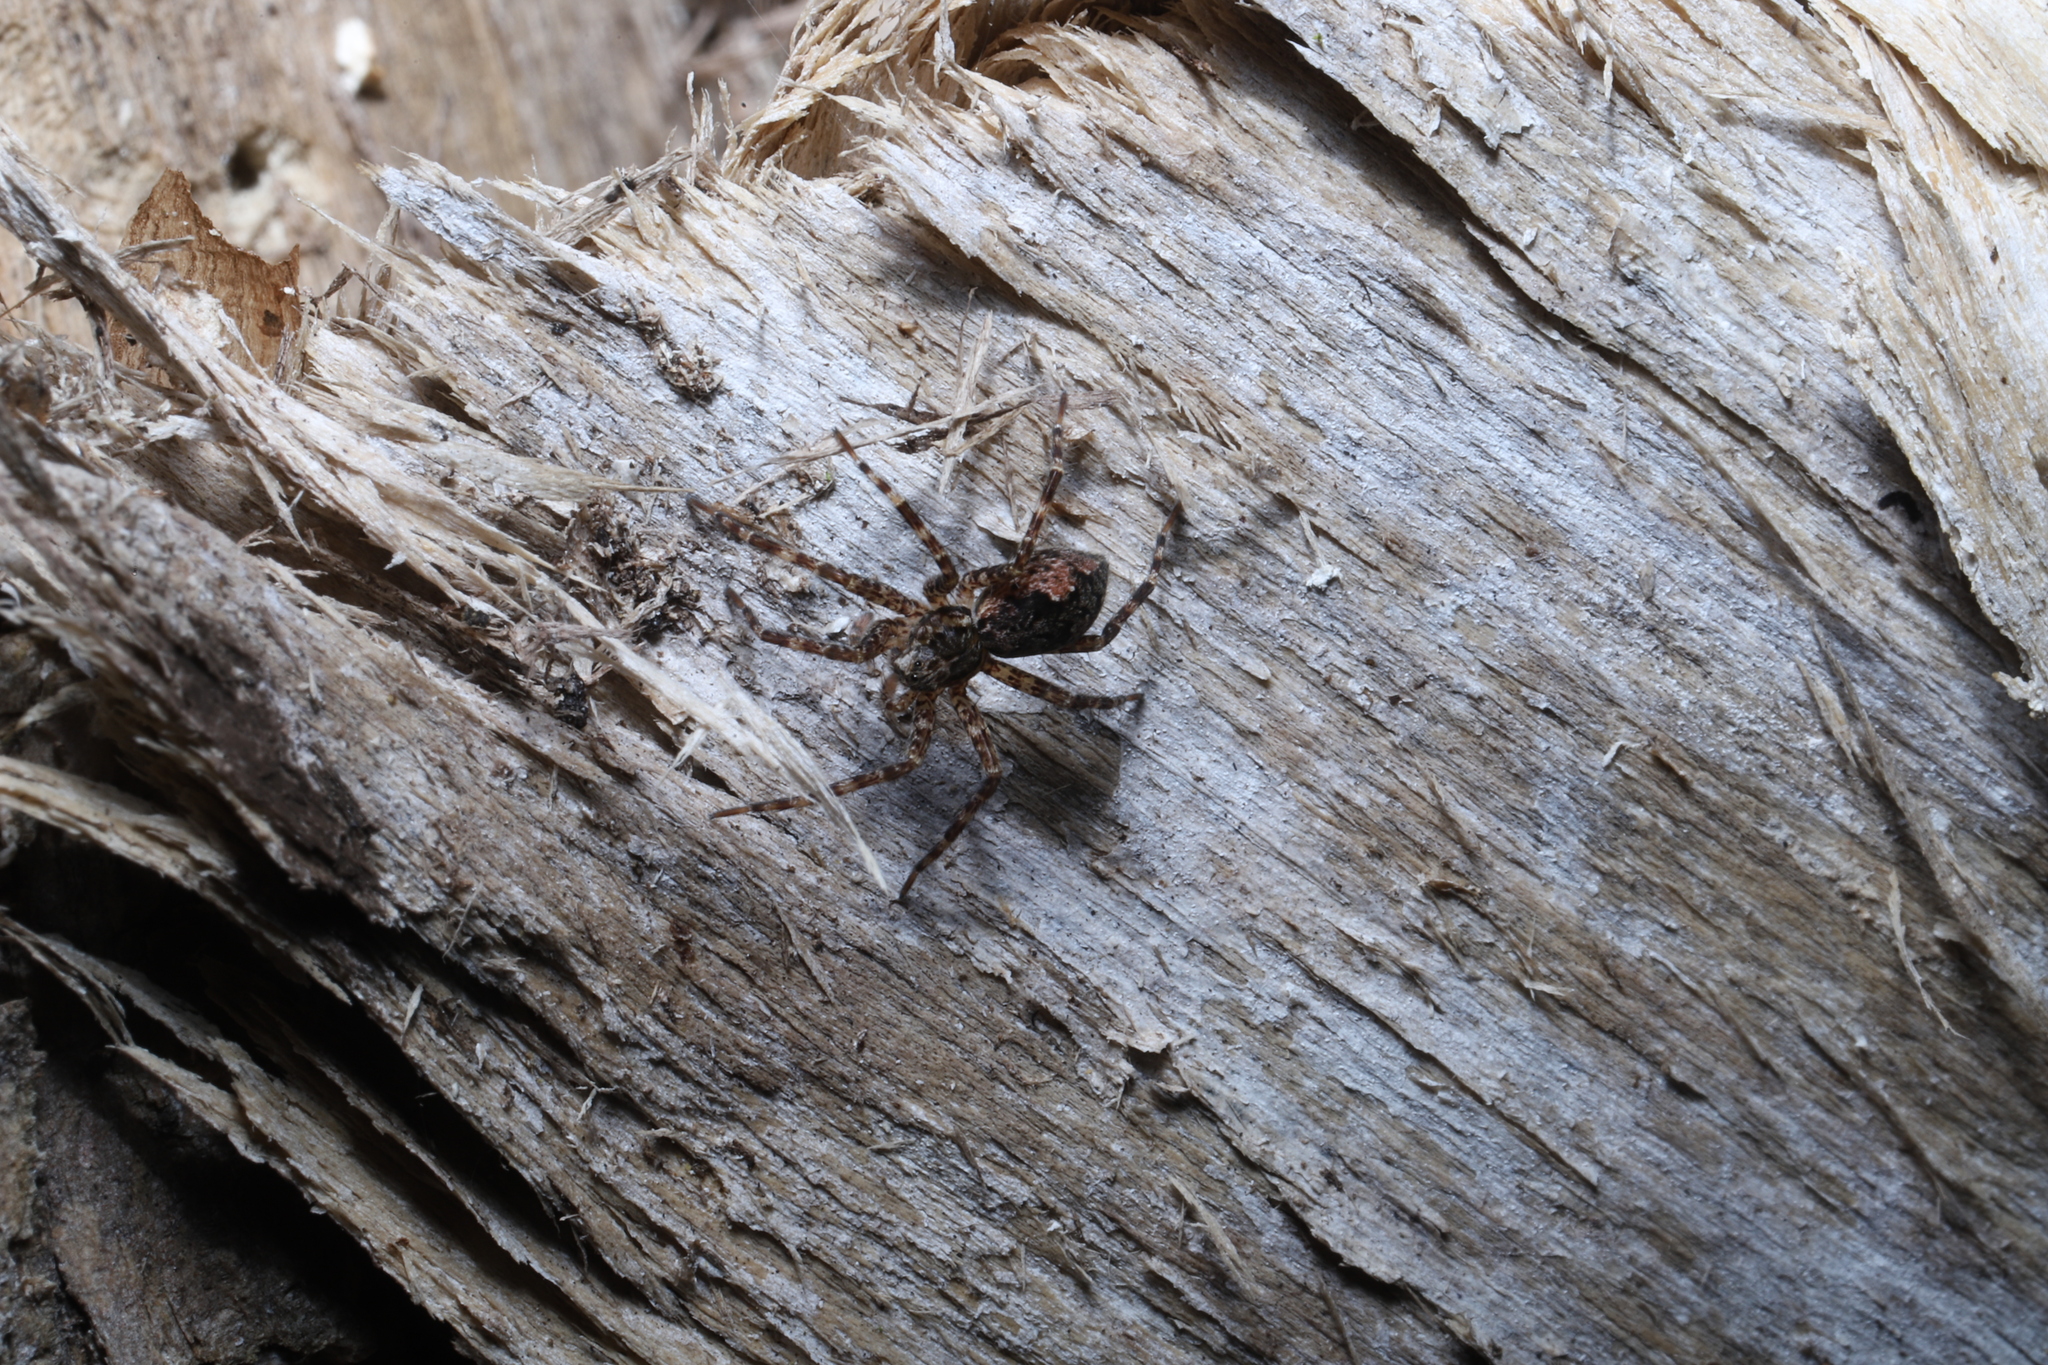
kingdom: Animalia
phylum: Arthropoda
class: Arachnida
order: Araneae
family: Pisauridae
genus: Dolomedes
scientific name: Dolomedes tenebrosus
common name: Dark fishing spider
